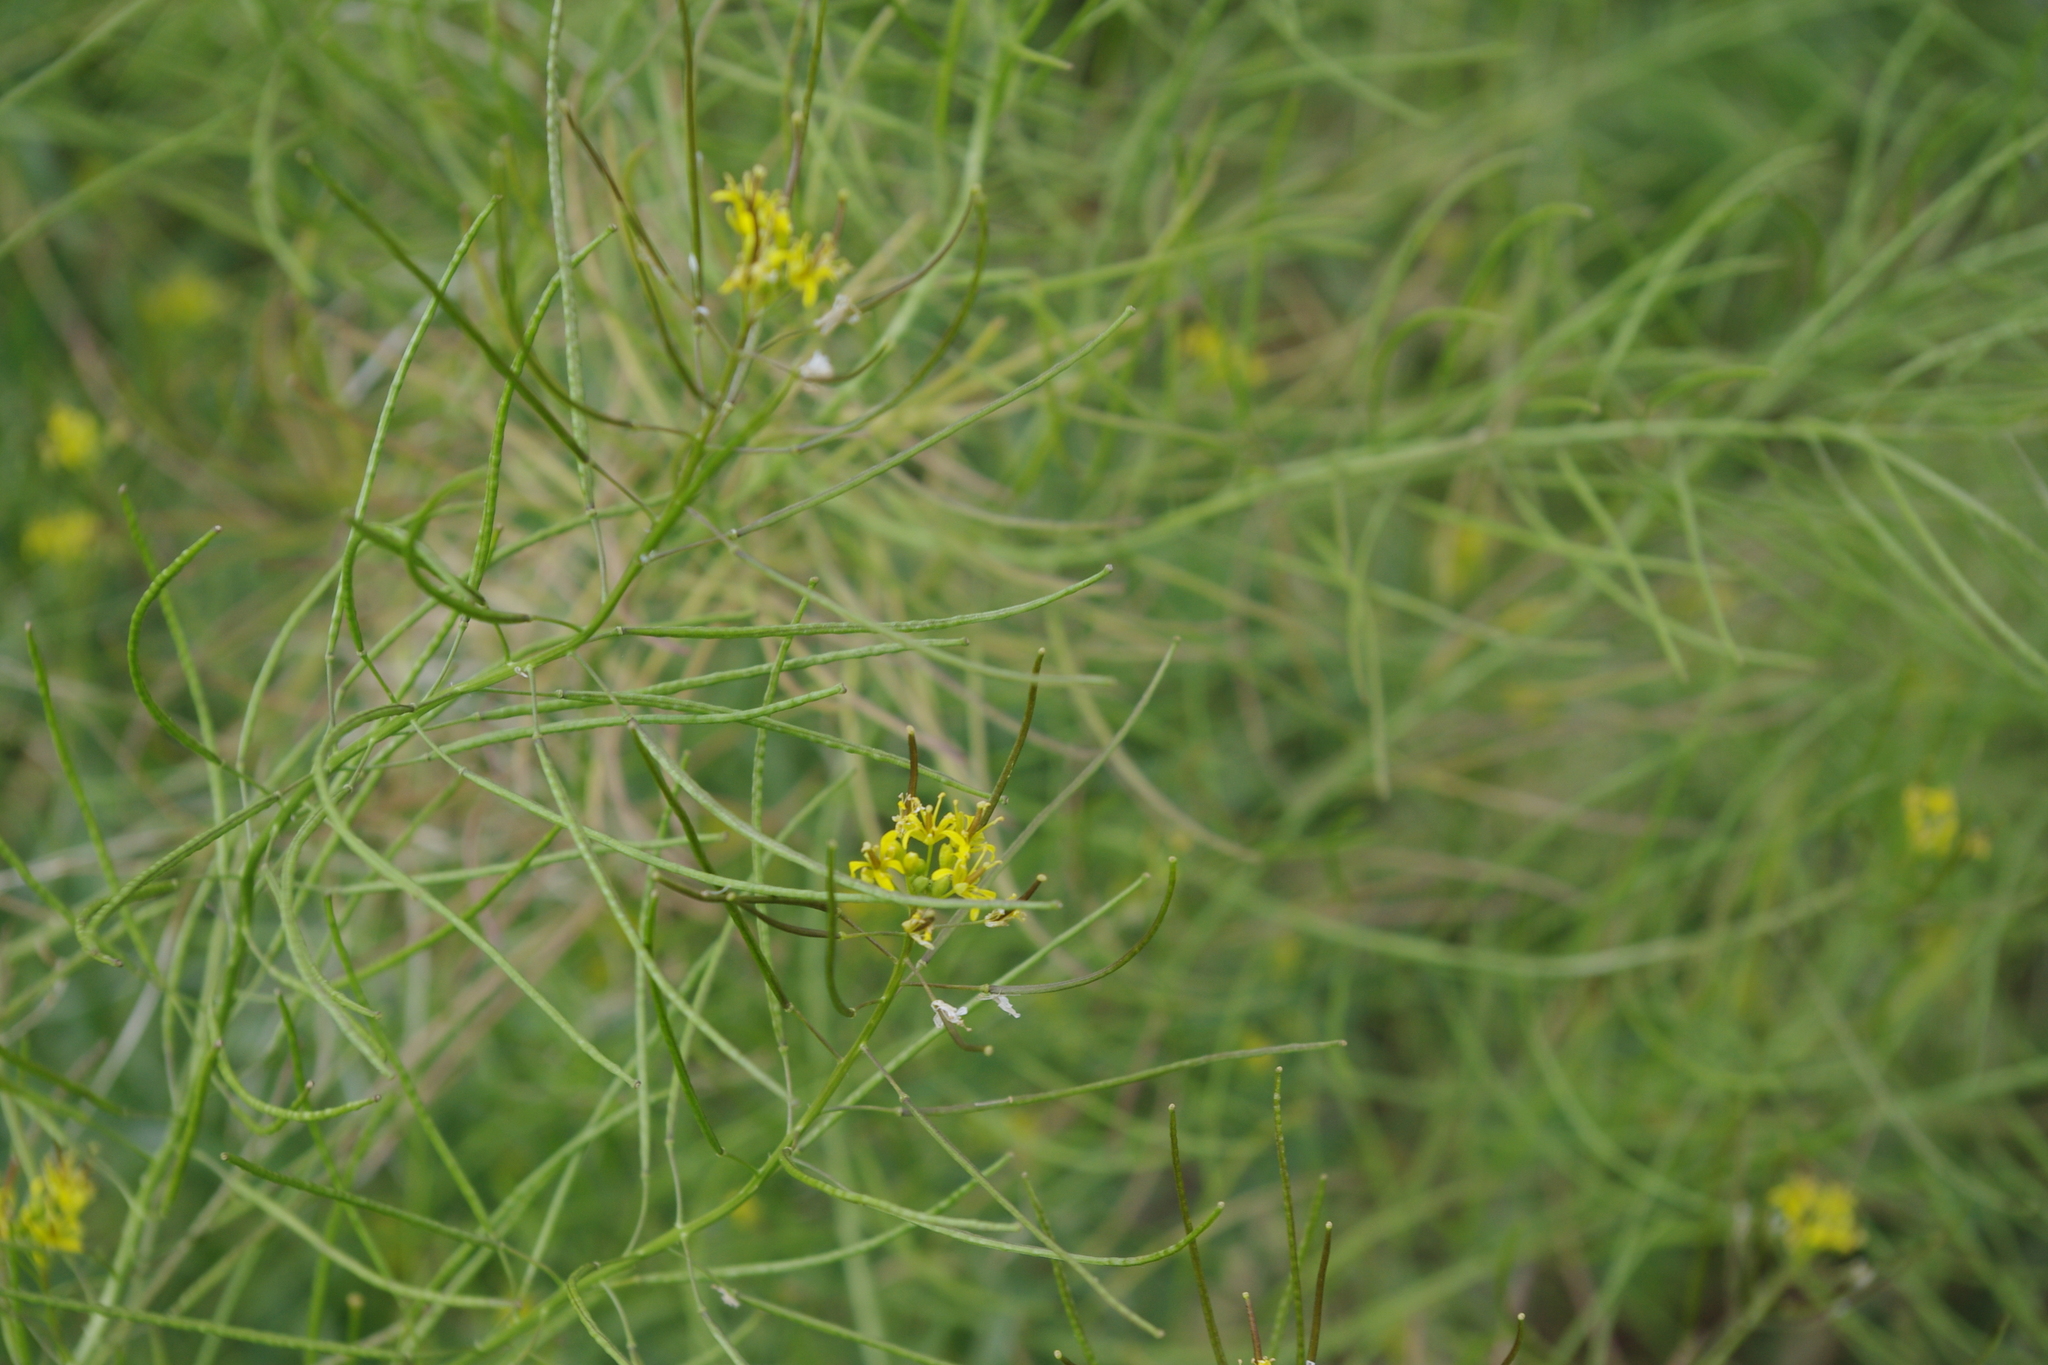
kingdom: Plantae
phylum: Tracheophyta
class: Magnoliopsida
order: Brassicales
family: Brassicaceae
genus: Sisymbrium
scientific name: Sisymbrium irio
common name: London rocket
